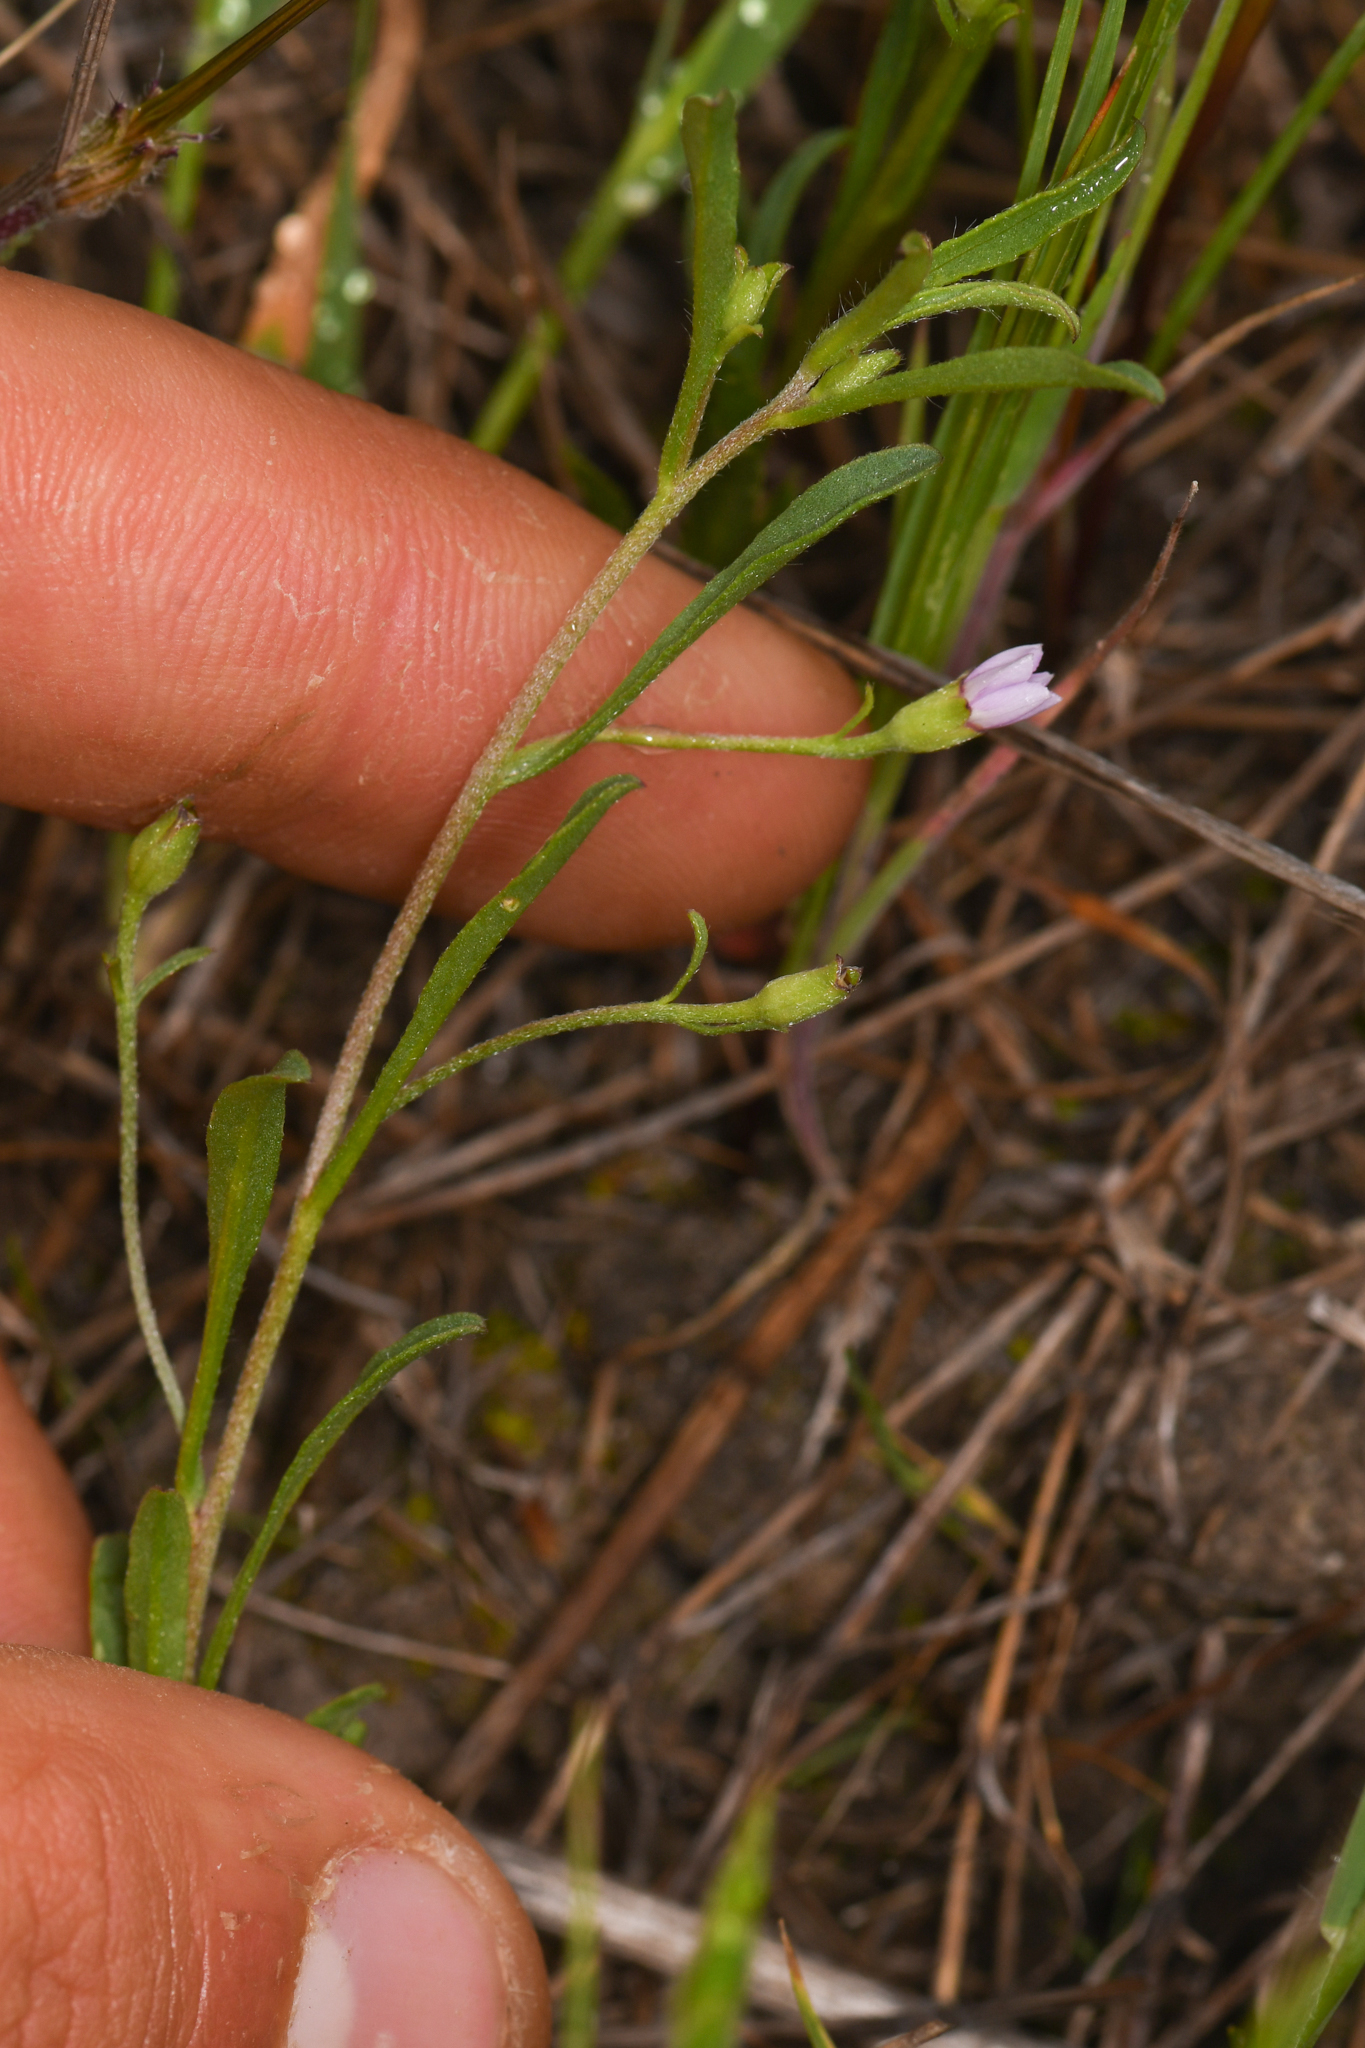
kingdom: Plantae
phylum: Tracheophyta
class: Magnoliopsida
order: Solanales
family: Convolvulaceae
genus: Convolvulus
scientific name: Convolvulus simulans
